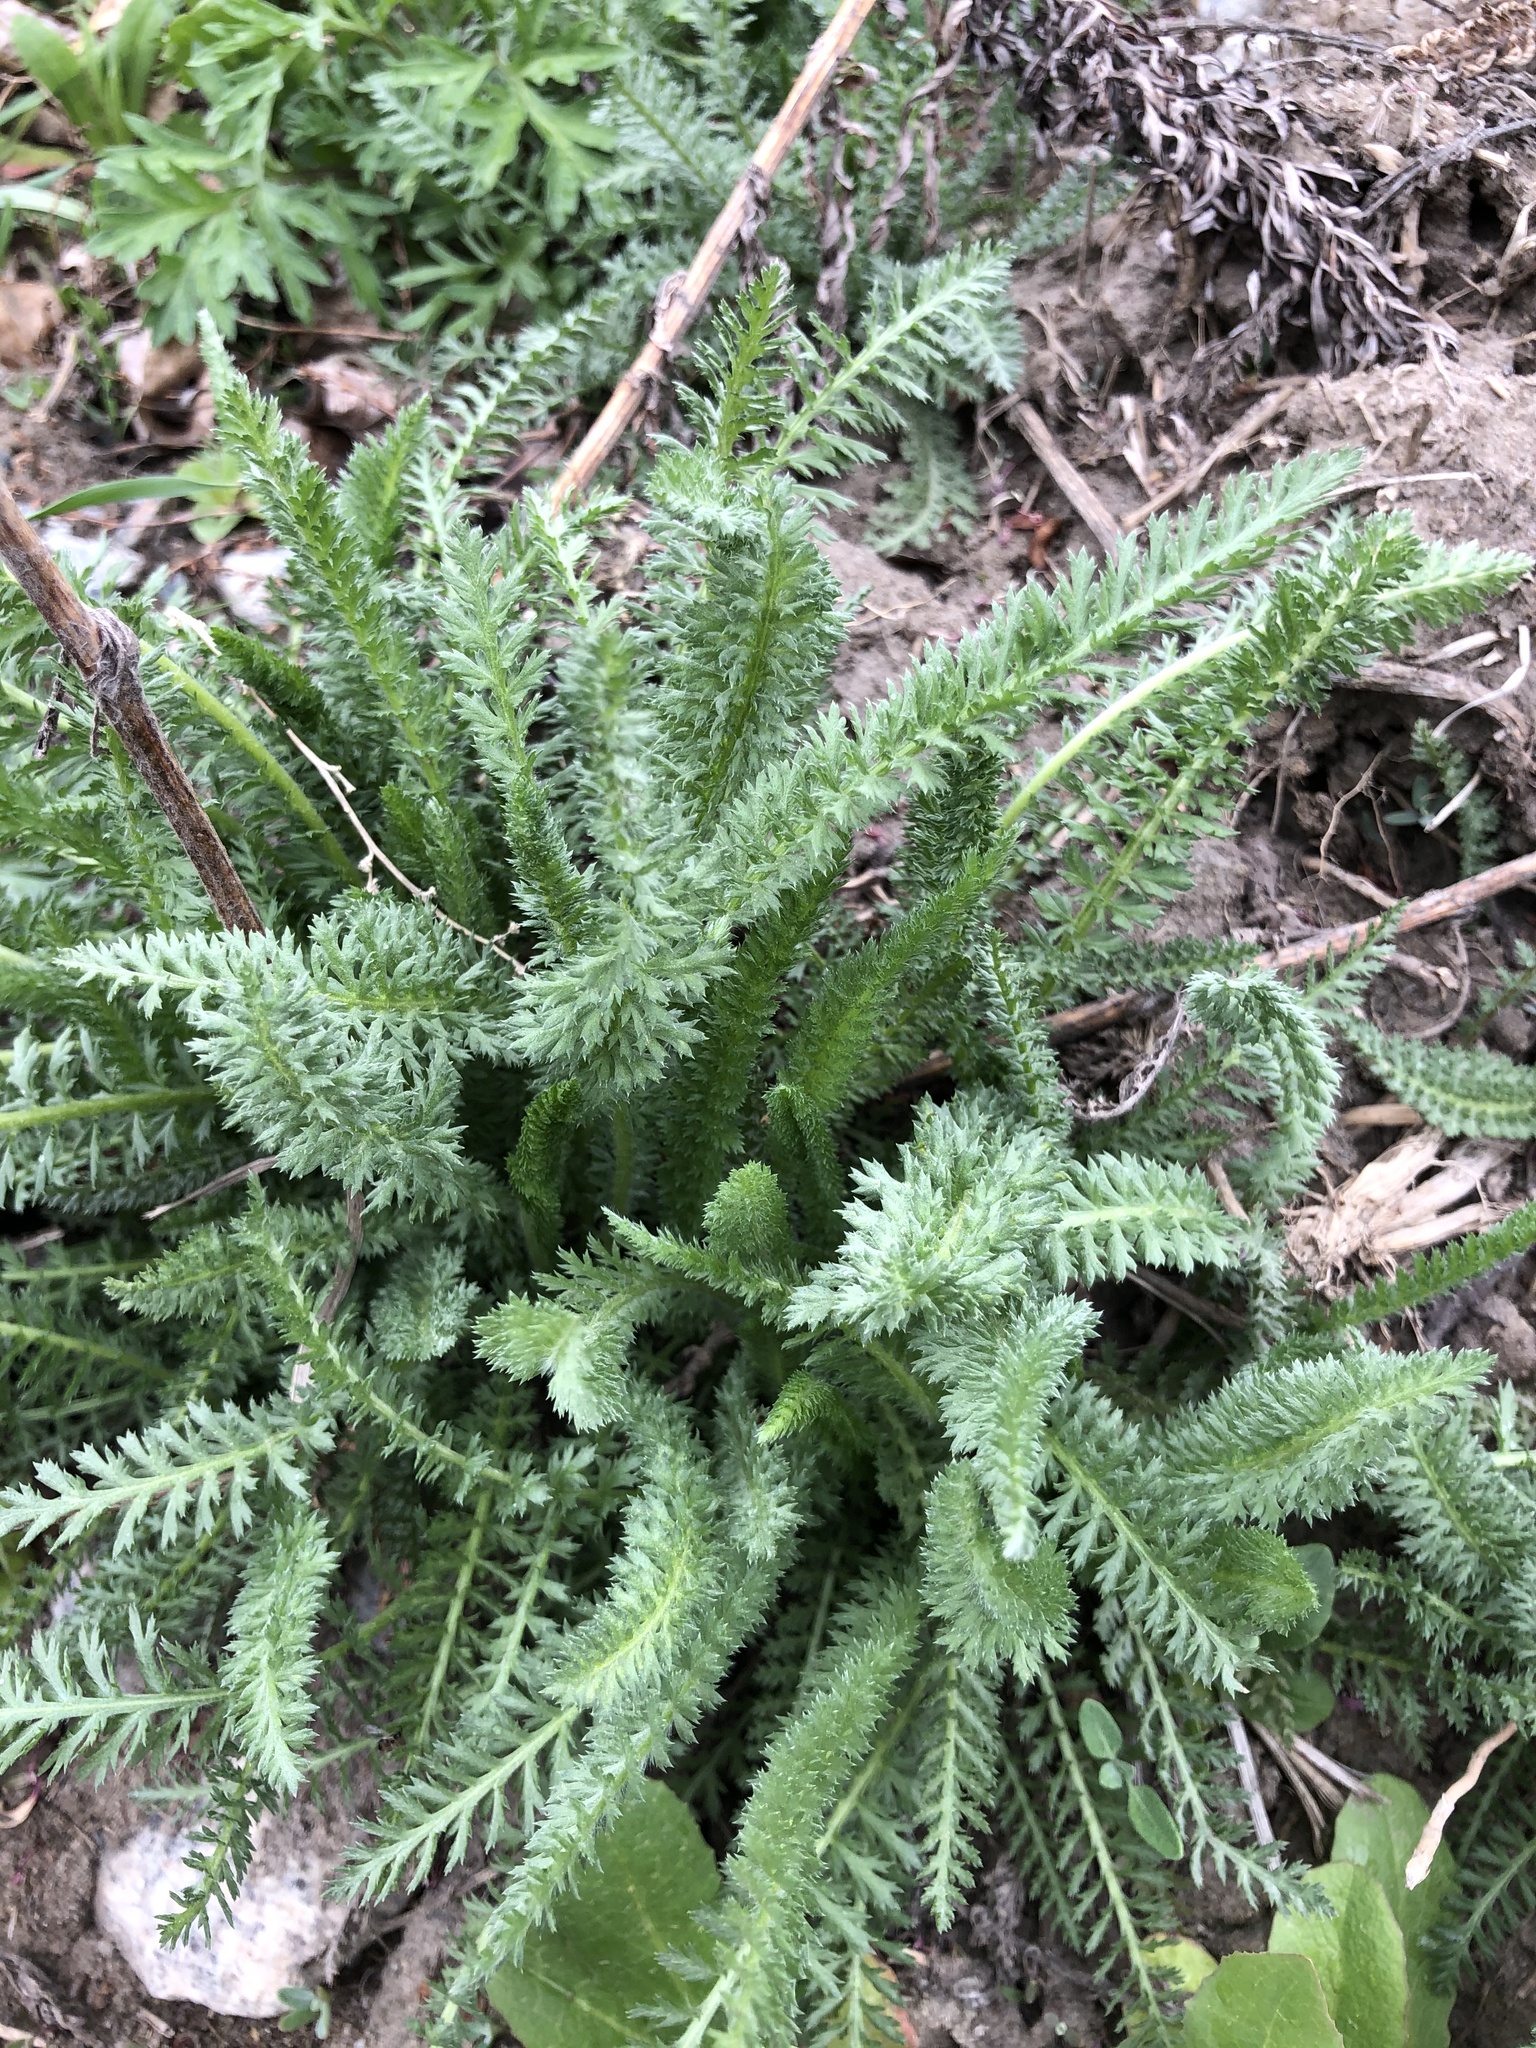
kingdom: Plantae
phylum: Tracheophyta
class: Magnoliopsida
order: Asterales
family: Asteraceae
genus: Achillea
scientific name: Achillea millefolium
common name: Yarrow
